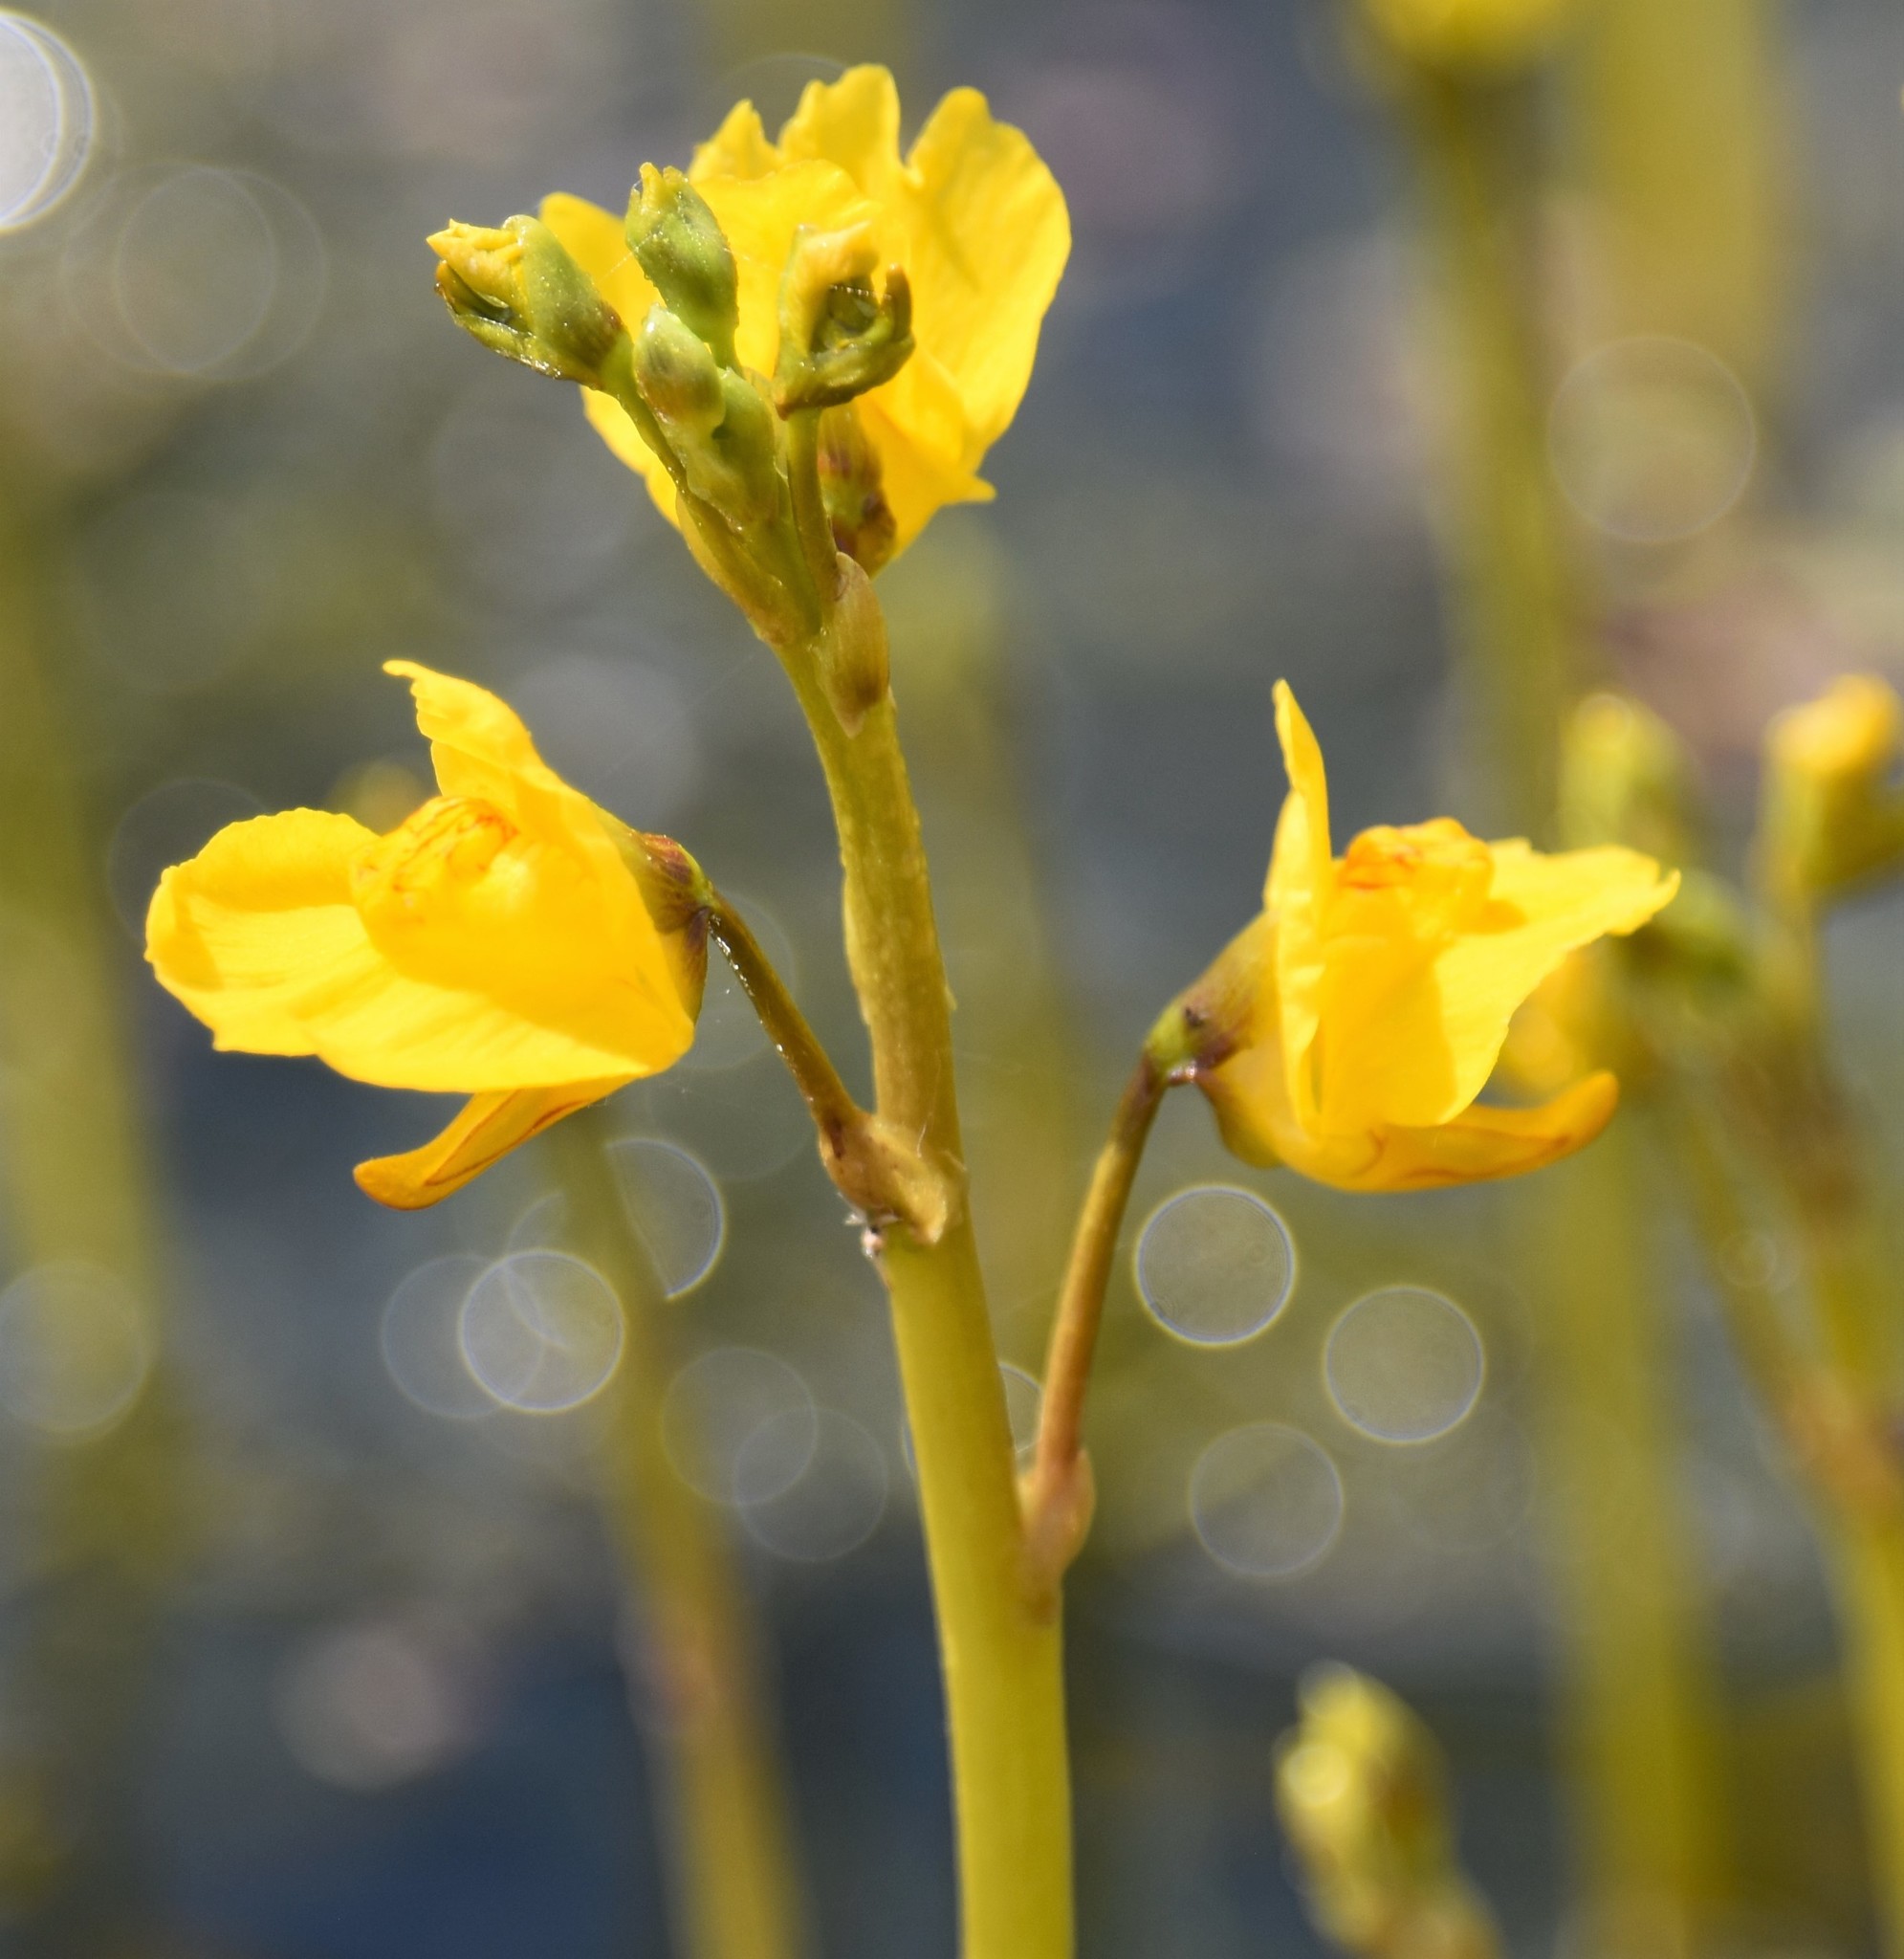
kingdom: Plantae
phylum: Tracheophyta
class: Magnoliopsida
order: Lamiales
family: Lentibulariaceae
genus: Utricularia
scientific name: Utricularia macrorhiza
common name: Common bladderwort
